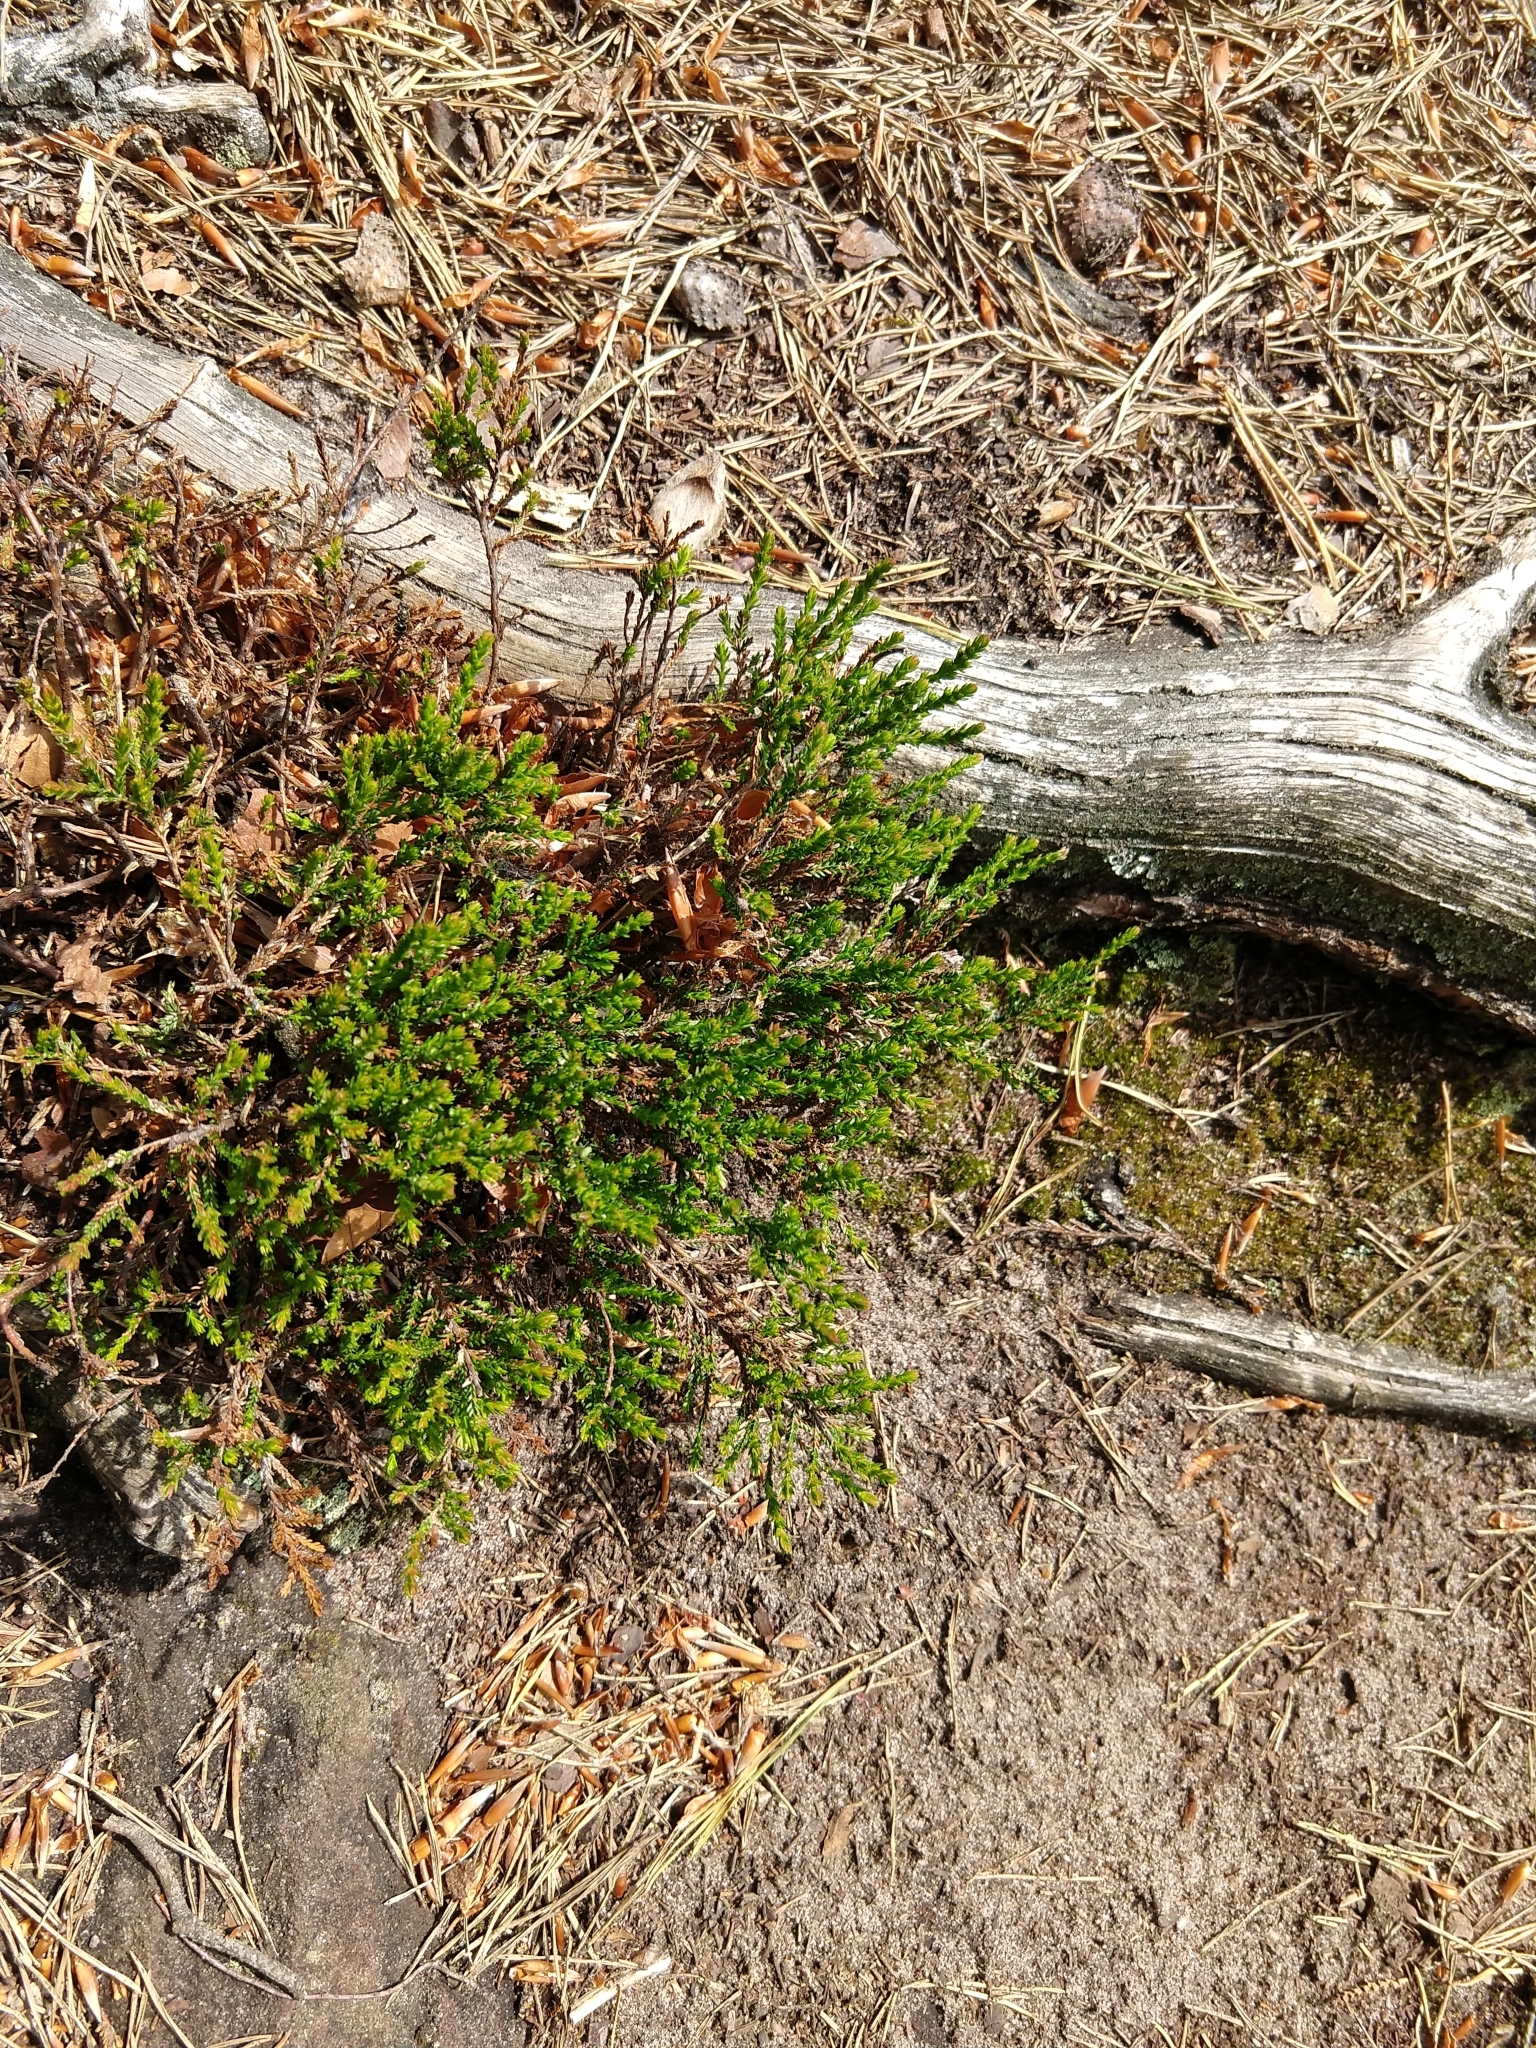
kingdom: Plantae
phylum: Tracheophyta
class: Magnoliopsida
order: Ericales
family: Ericaceae
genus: Calluna
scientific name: Calluna vulgaris
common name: Heather
